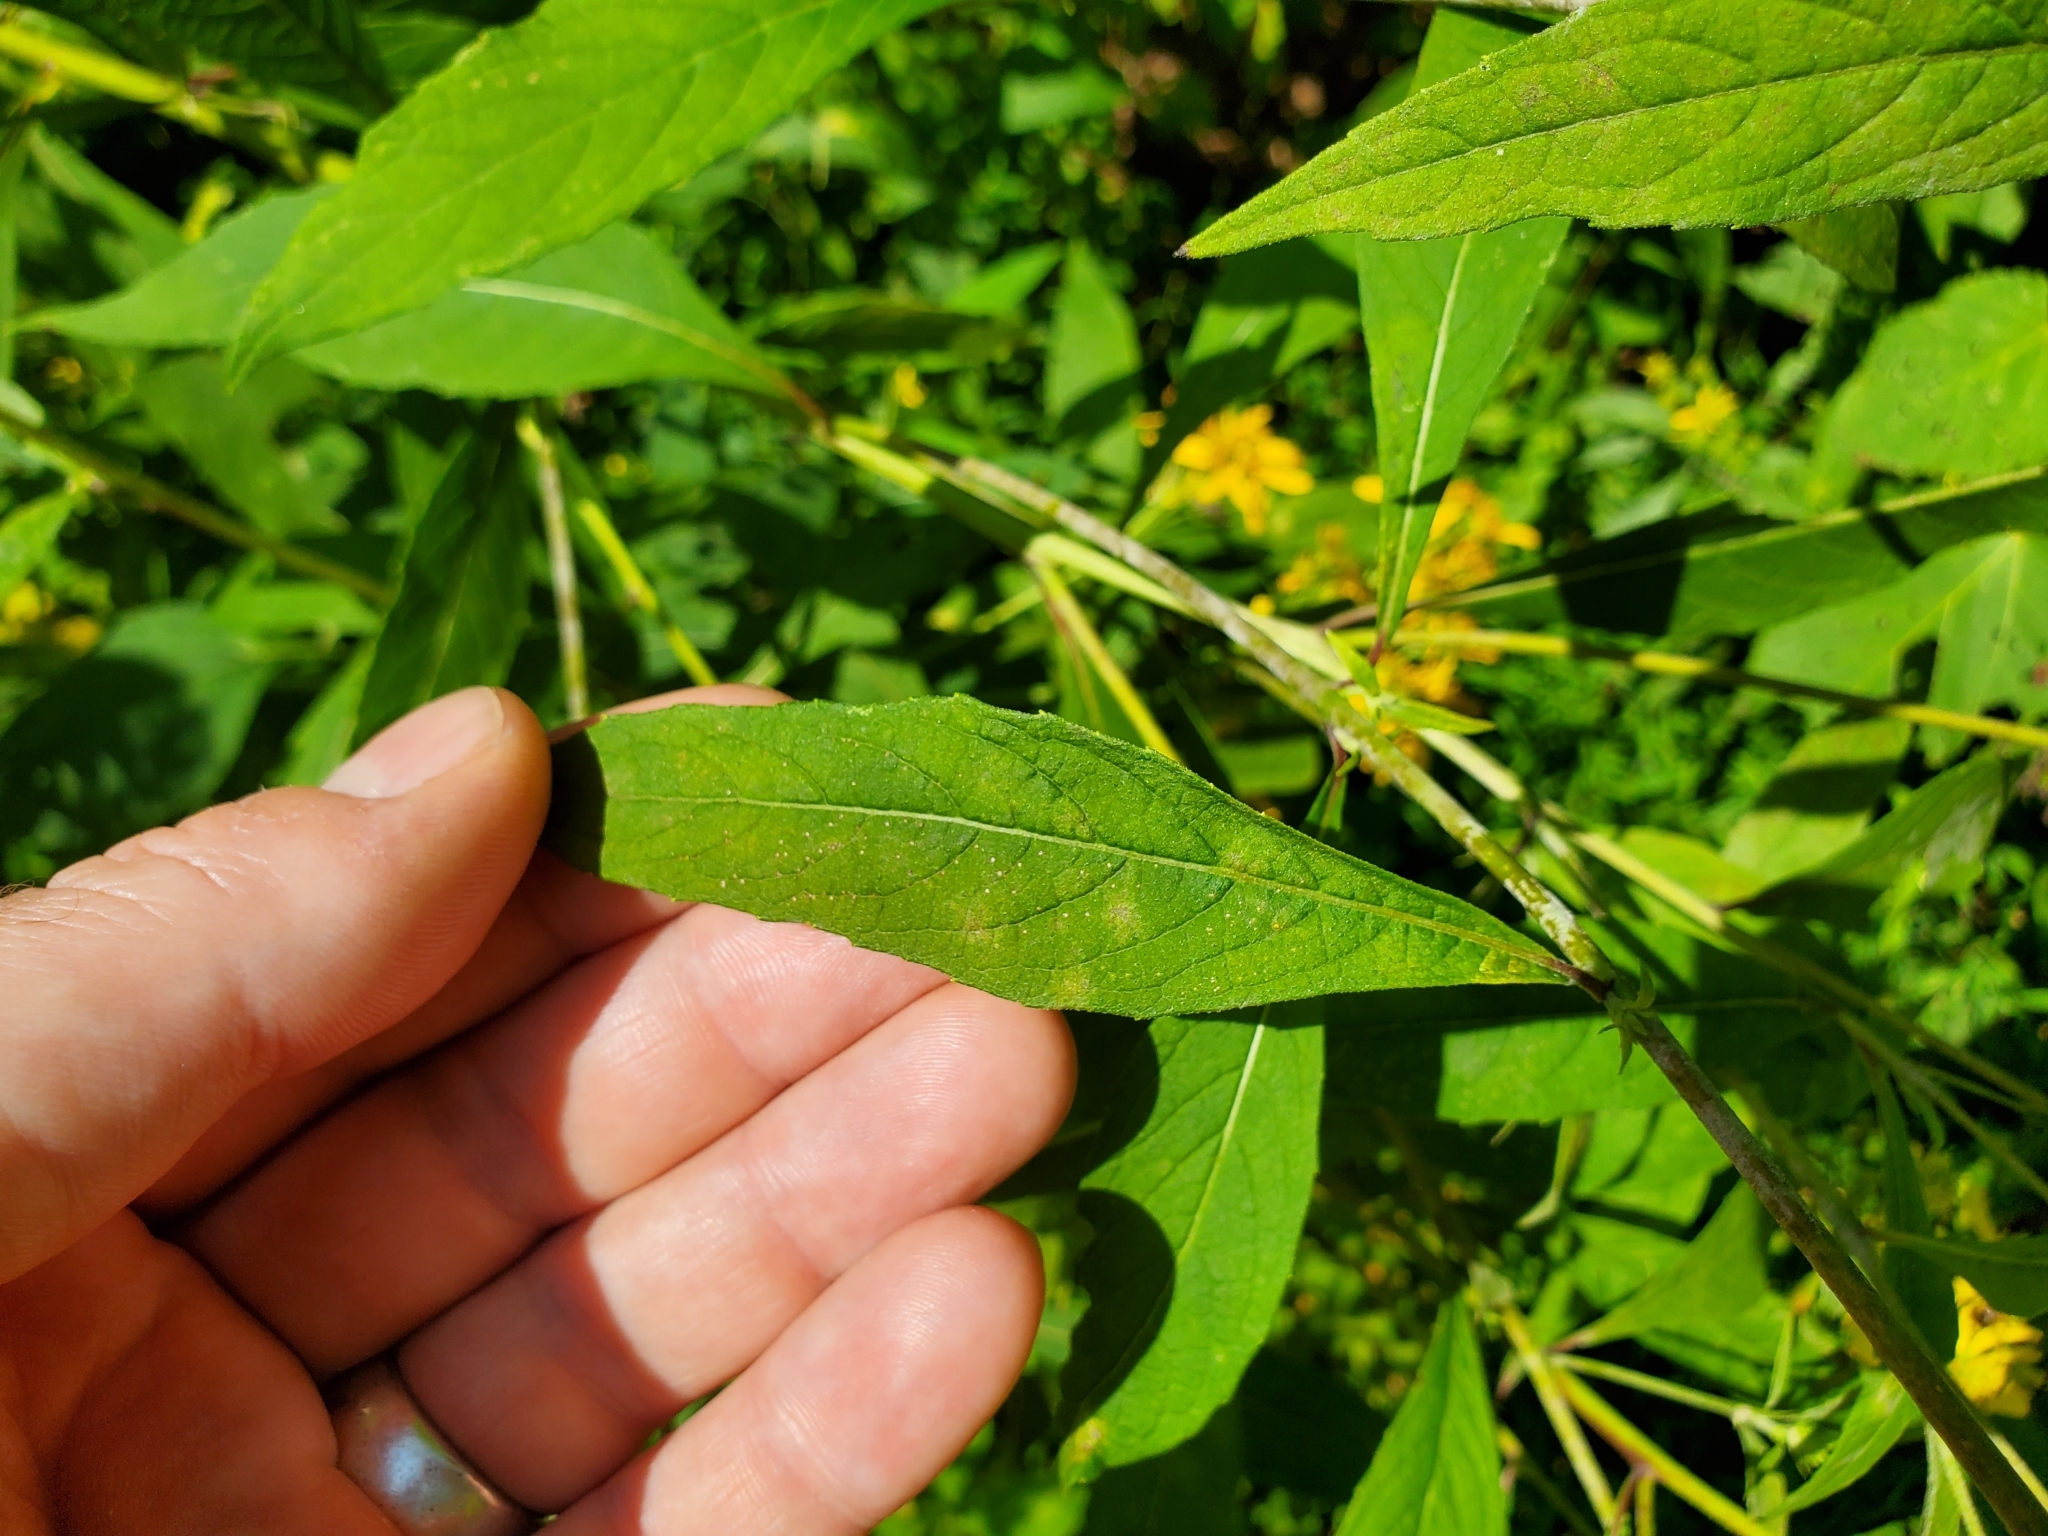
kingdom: Plantae
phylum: Tracheophyta
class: Magnoliopsida
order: Asterales
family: Asteraceae
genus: Verbesina
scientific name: Verbesina alternifolia
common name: Wingstem
